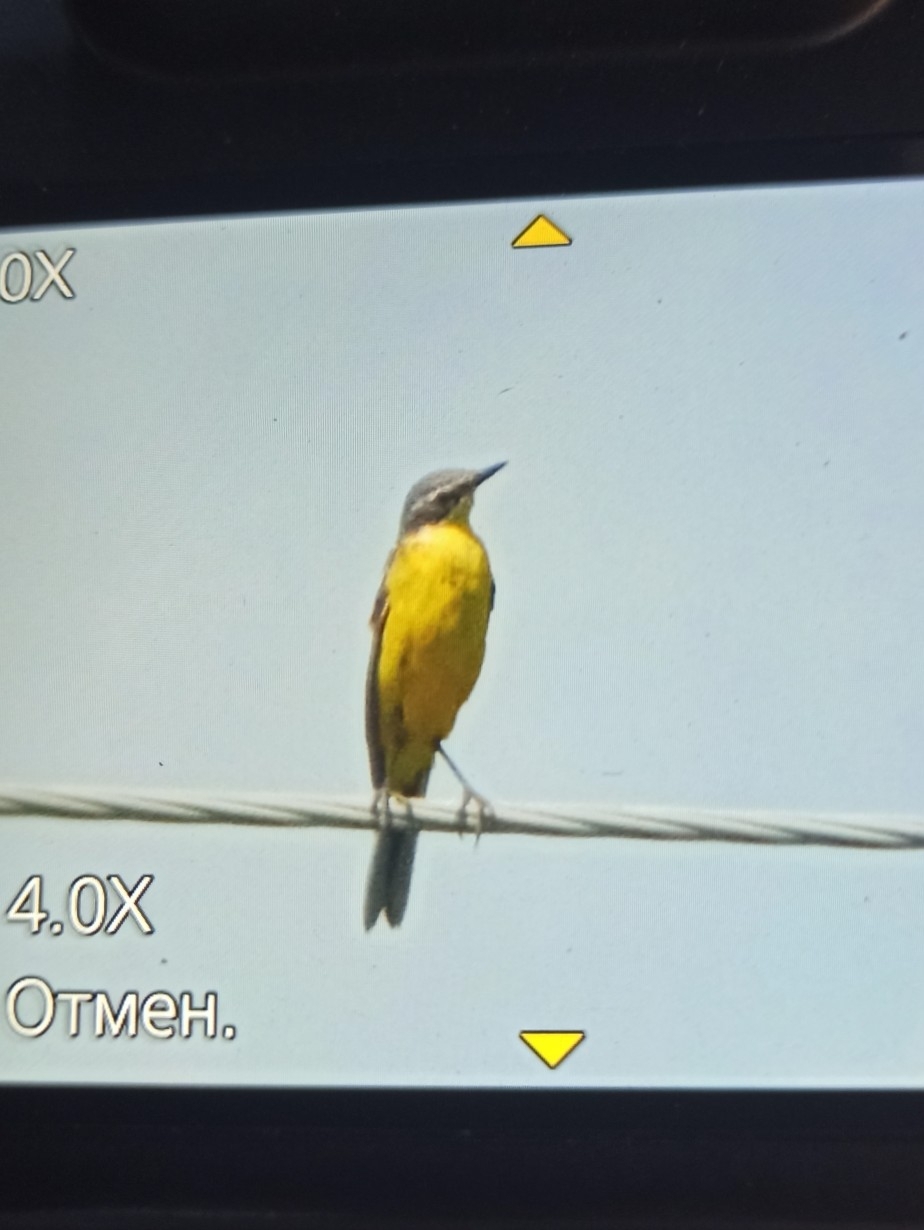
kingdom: Animalia
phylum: Chordata
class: Aves
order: Passeriformes
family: Motacillidae
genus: Motacilla
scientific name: Motacilla flava
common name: Western yellow wagtail
